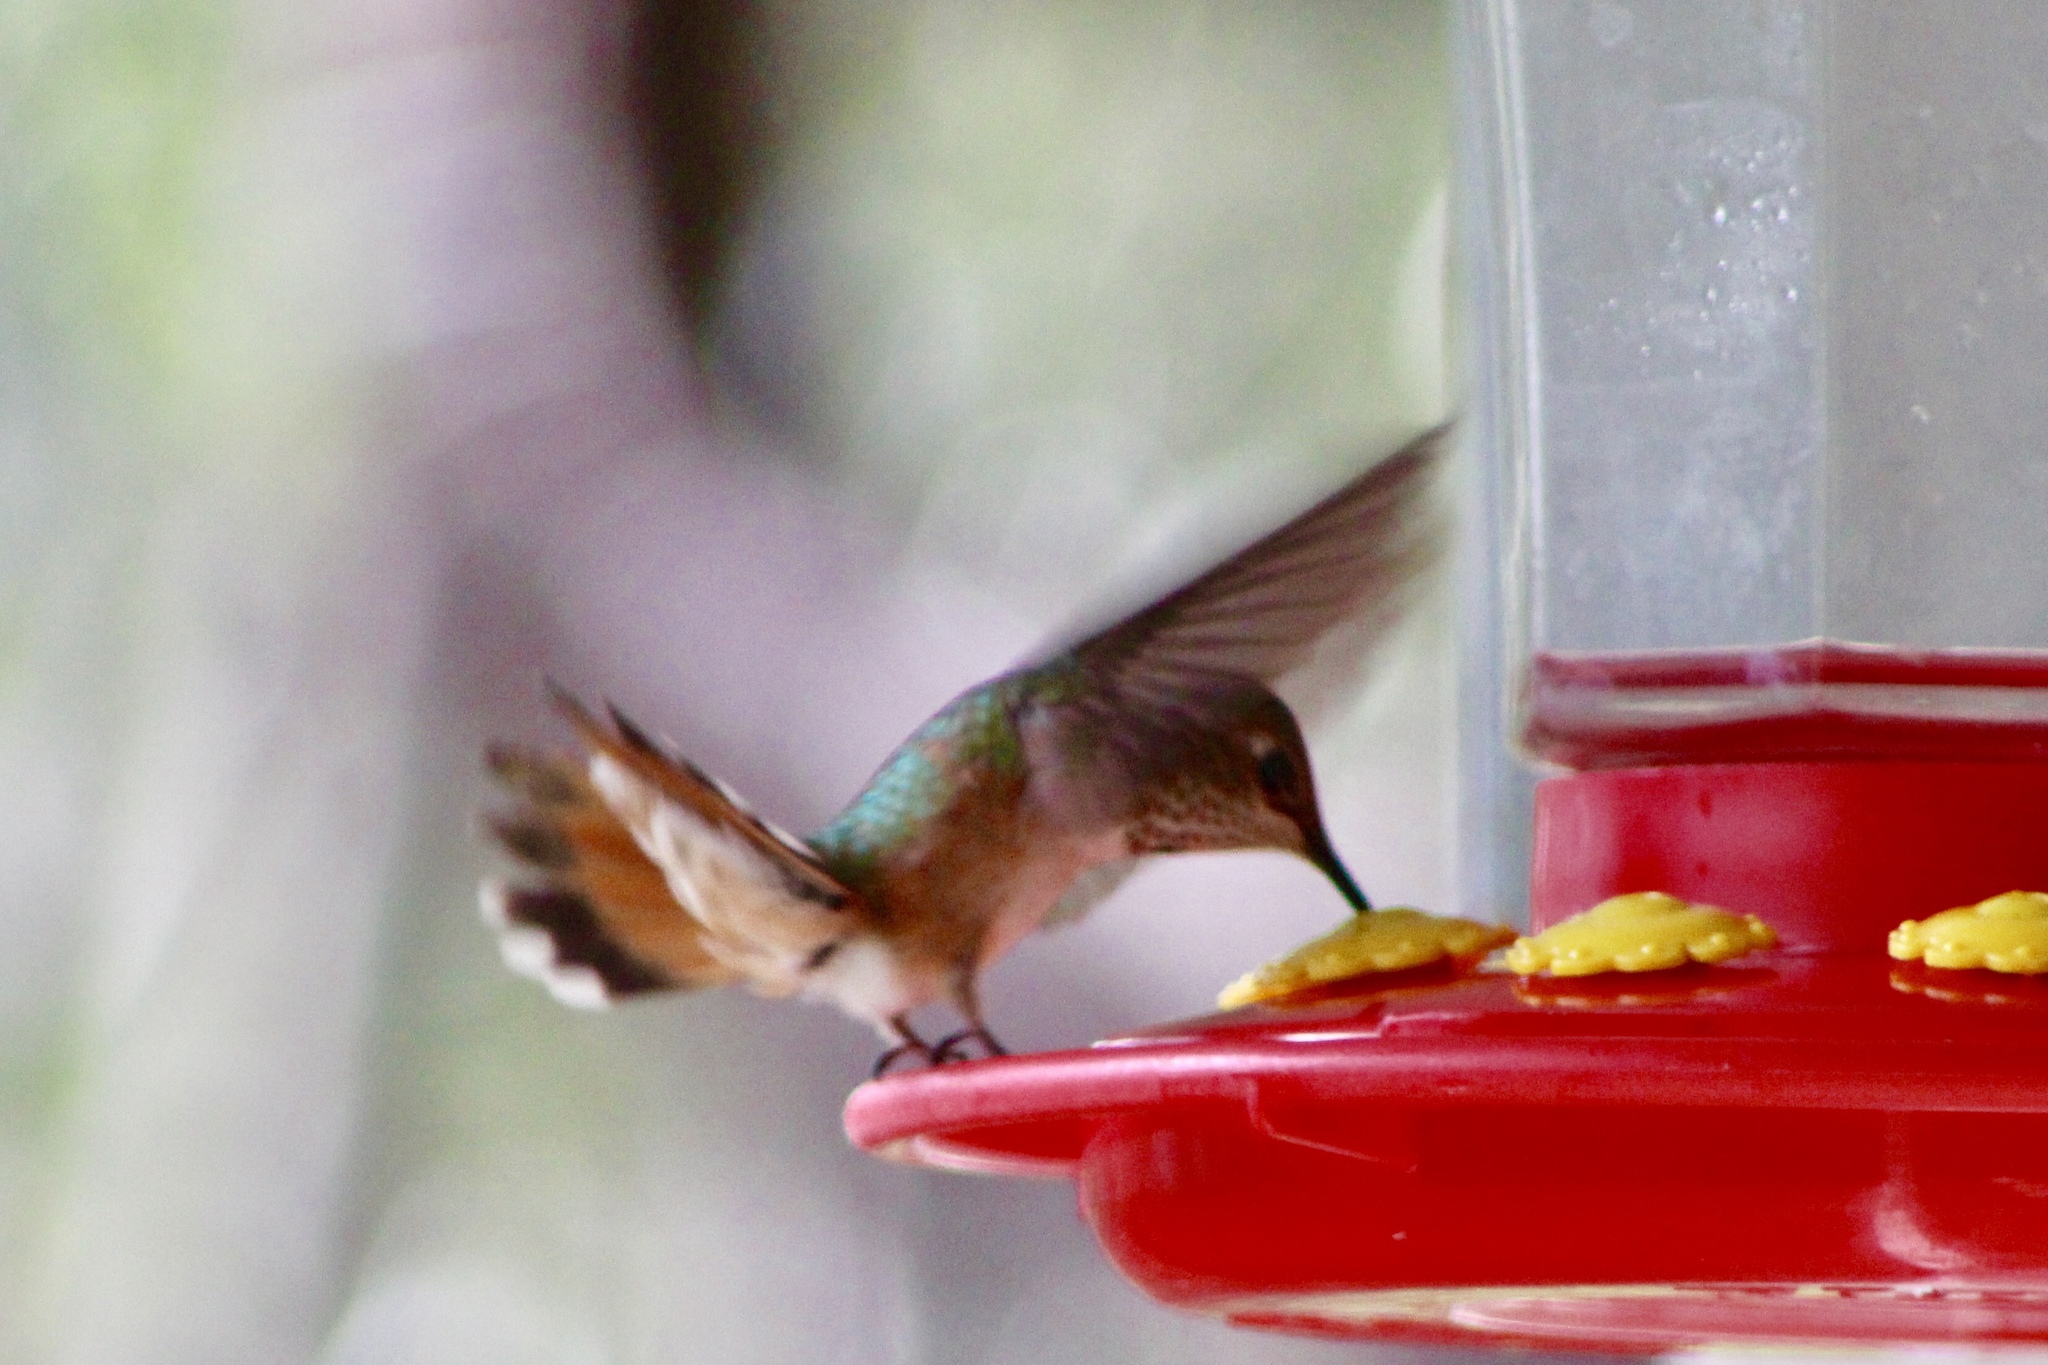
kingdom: Animalia
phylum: Chordata
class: Aves
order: Apodiformes
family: Trochilidae
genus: Selasphorus
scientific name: Selasphorus platycercus
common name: Broad-tailed hummingbird
